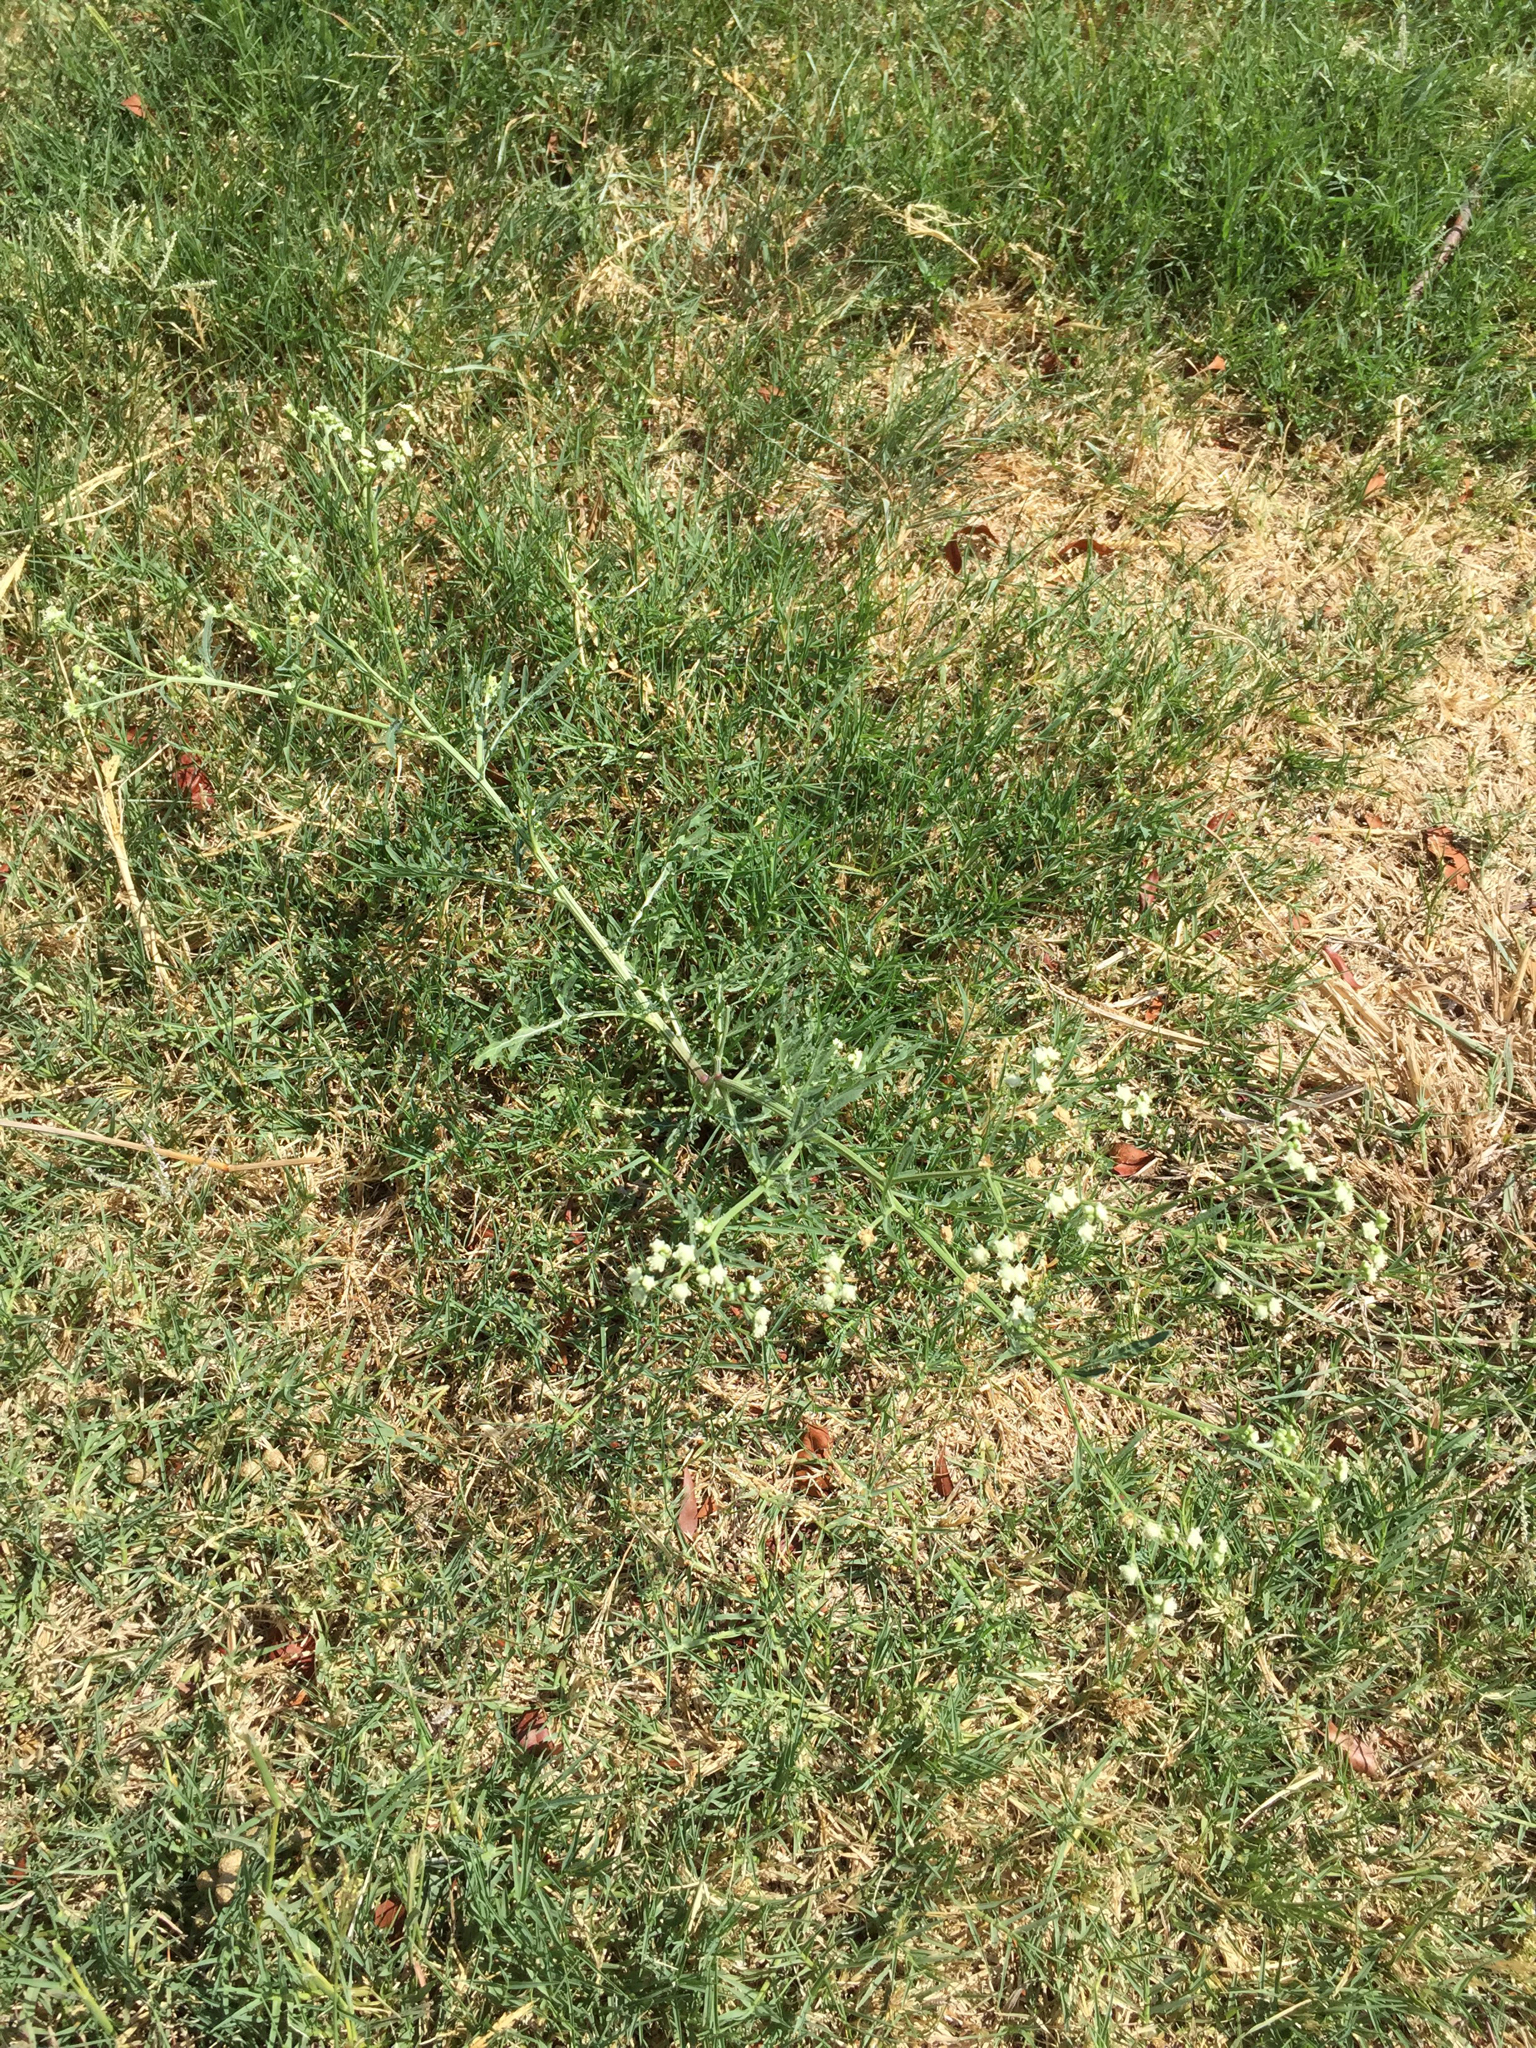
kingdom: Plantae
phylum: Tracheophyta
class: Magnoliopsida
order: Asterales
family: Asteraceae
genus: Parthenium
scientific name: Parthenium hysterophorus
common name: Santa maria feverfew
